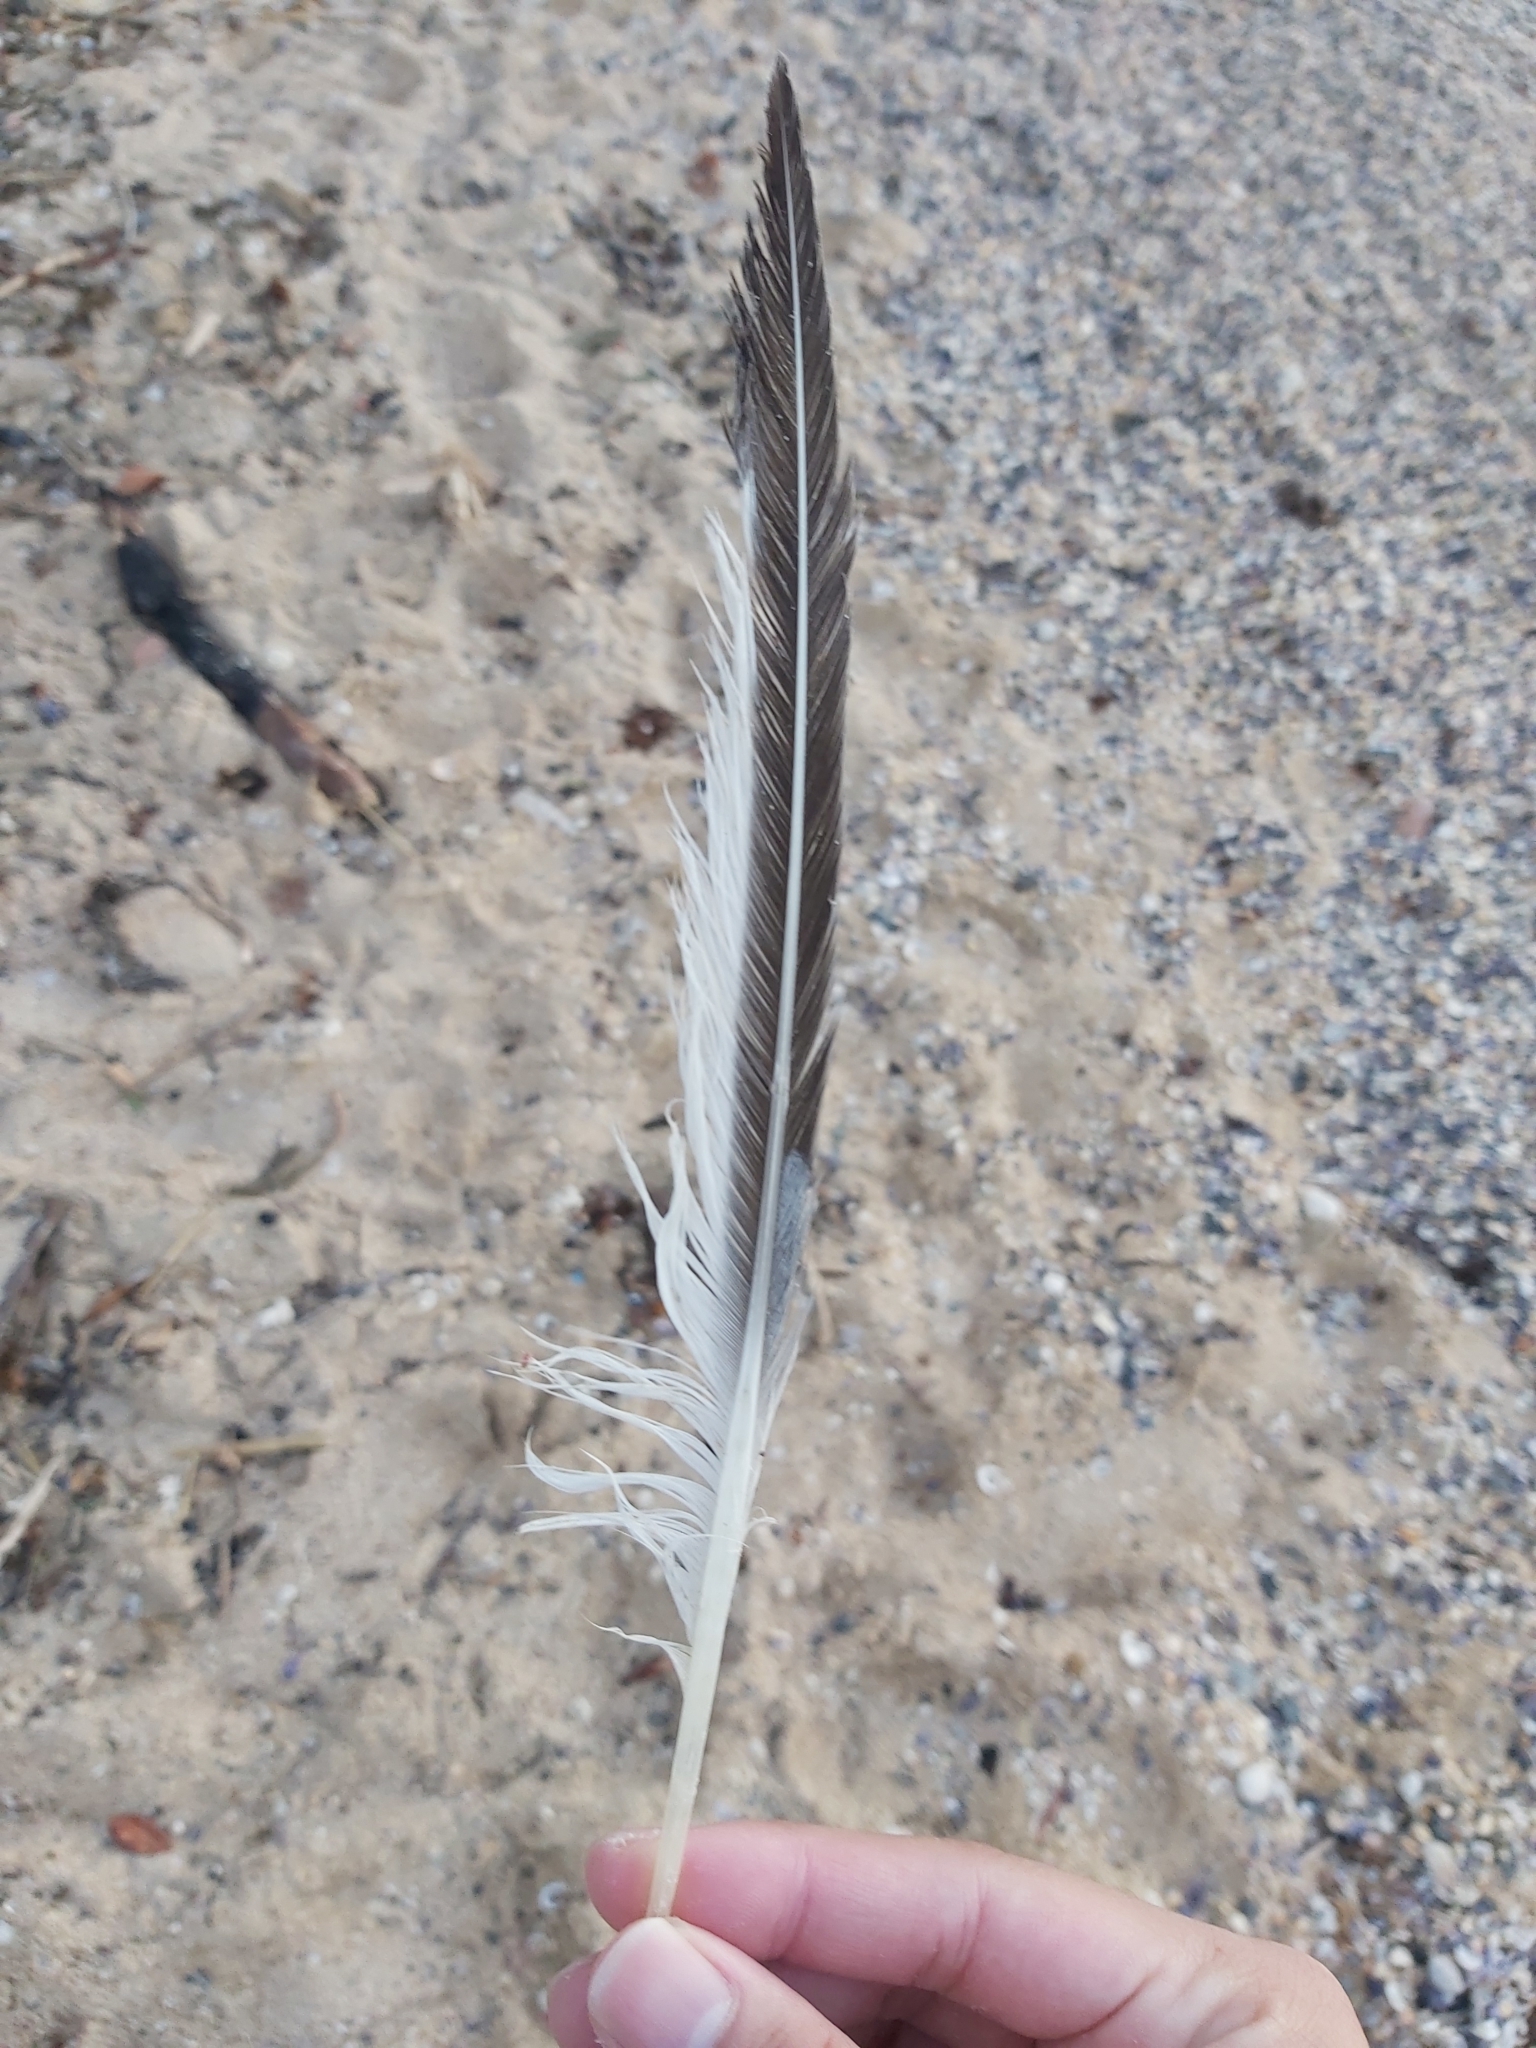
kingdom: Animalia
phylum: Chordata
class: Aves
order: Charadriiformes
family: Laridae
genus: Thalasseus
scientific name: Thalasseus bergii
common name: Greater crested tern
